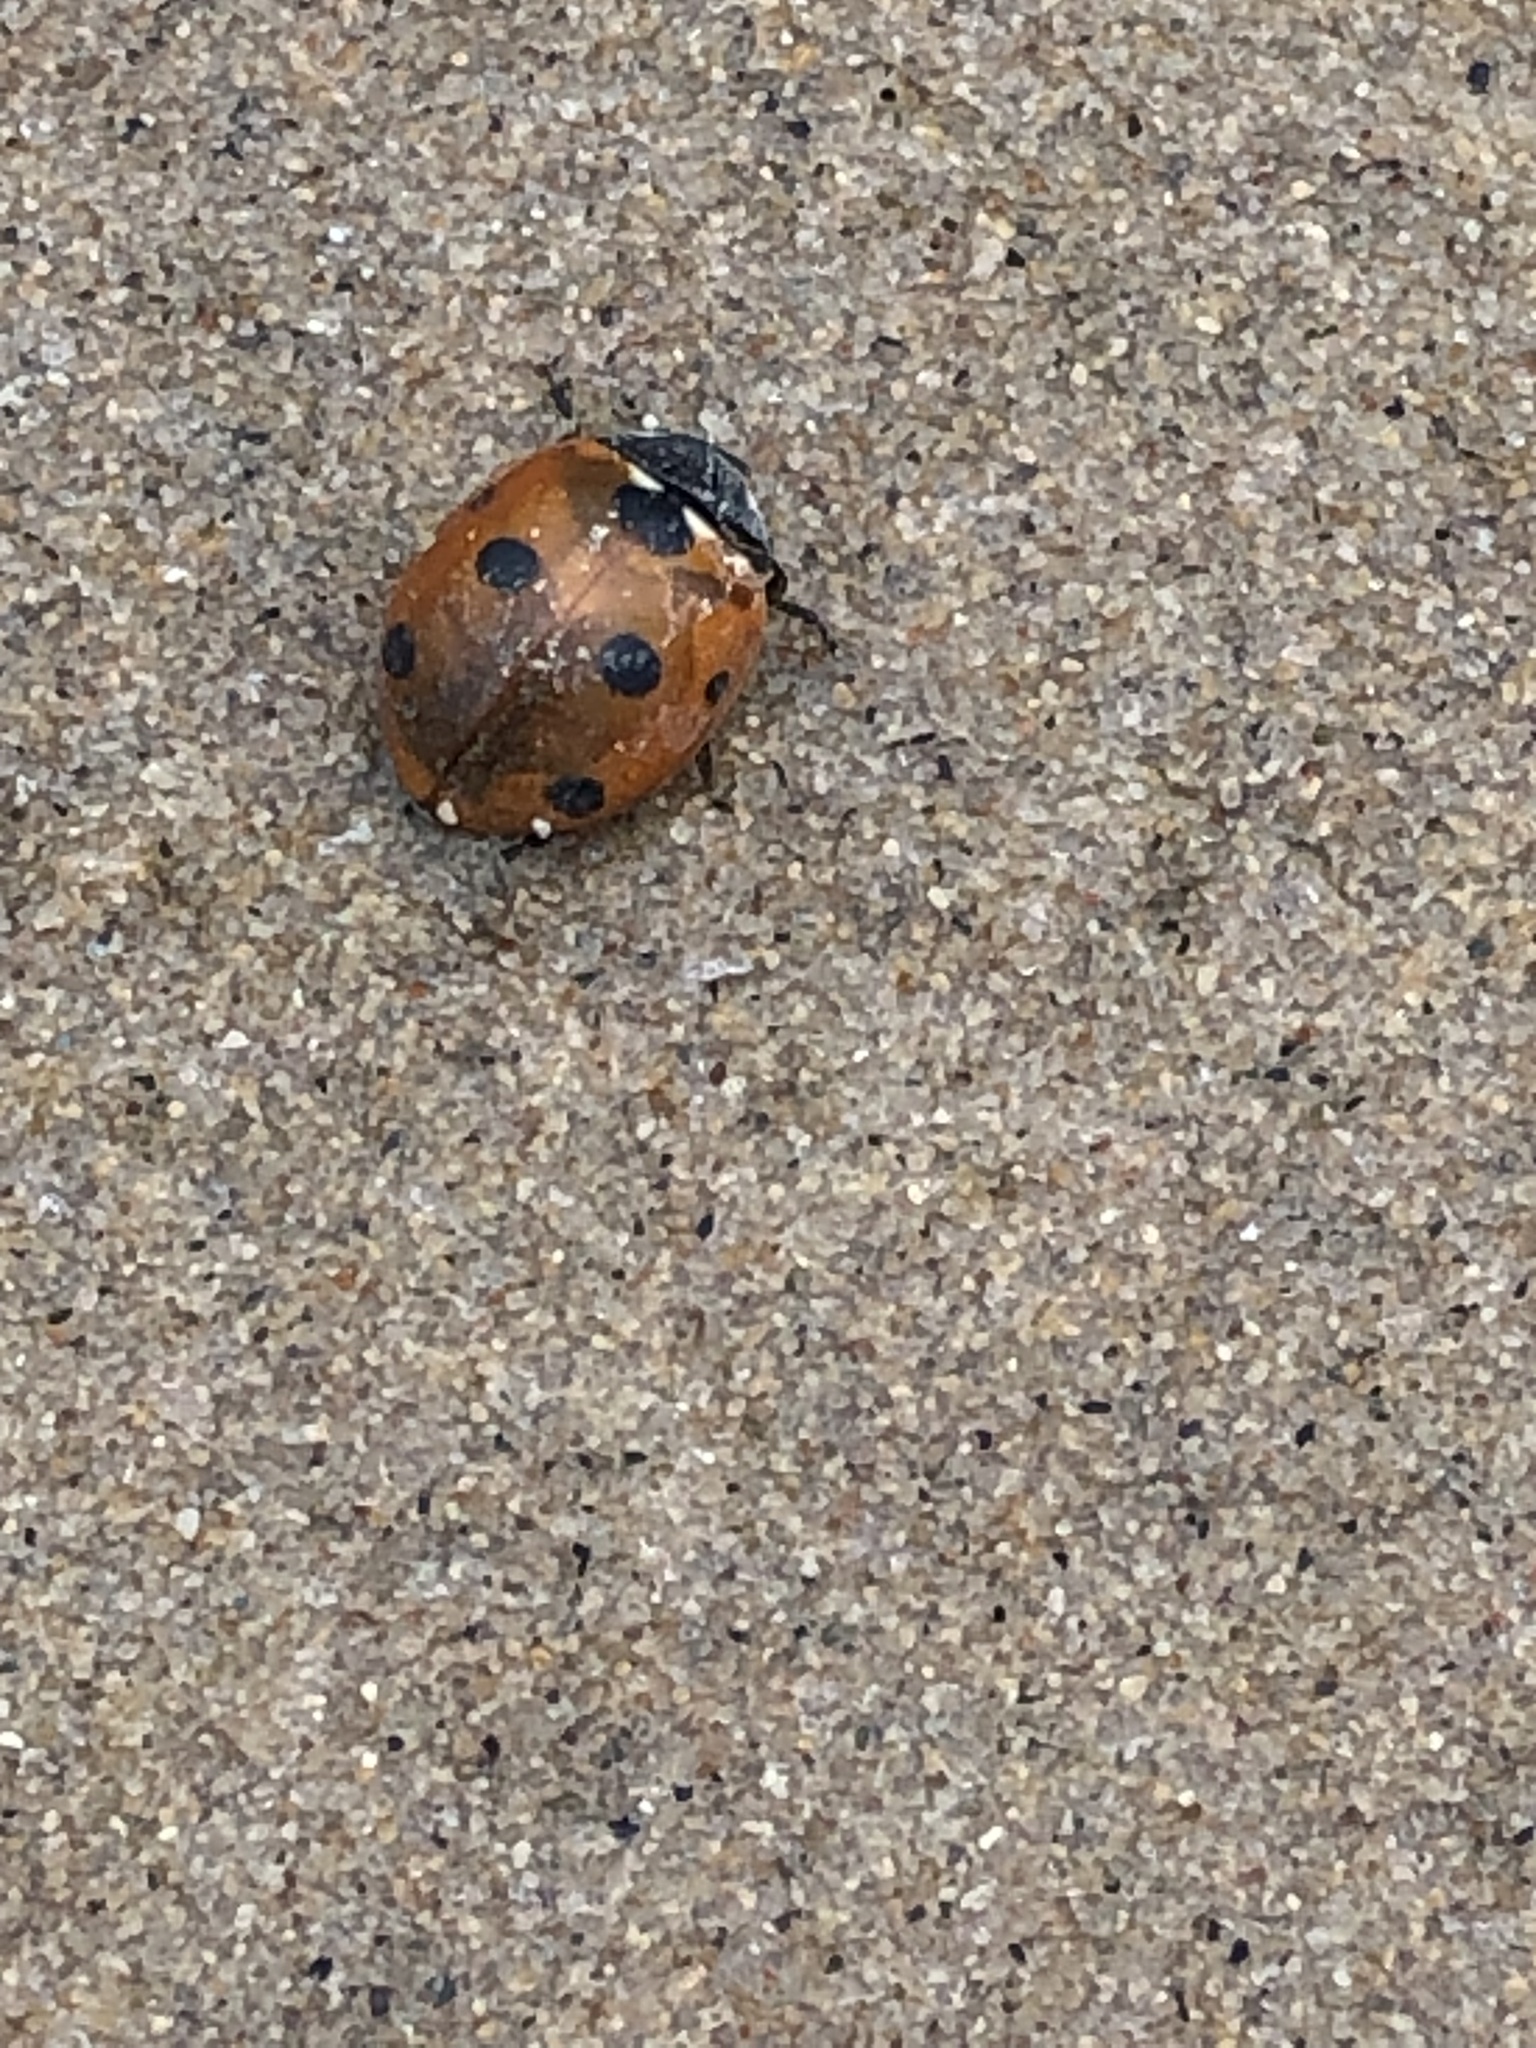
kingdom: Animalia
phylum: Arthropoda
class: Insecta
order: Coleoptera
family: Coccinellidae
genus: Coccinella
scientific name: Coccinella septempunctata
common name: Sevenspotted lady beetle
